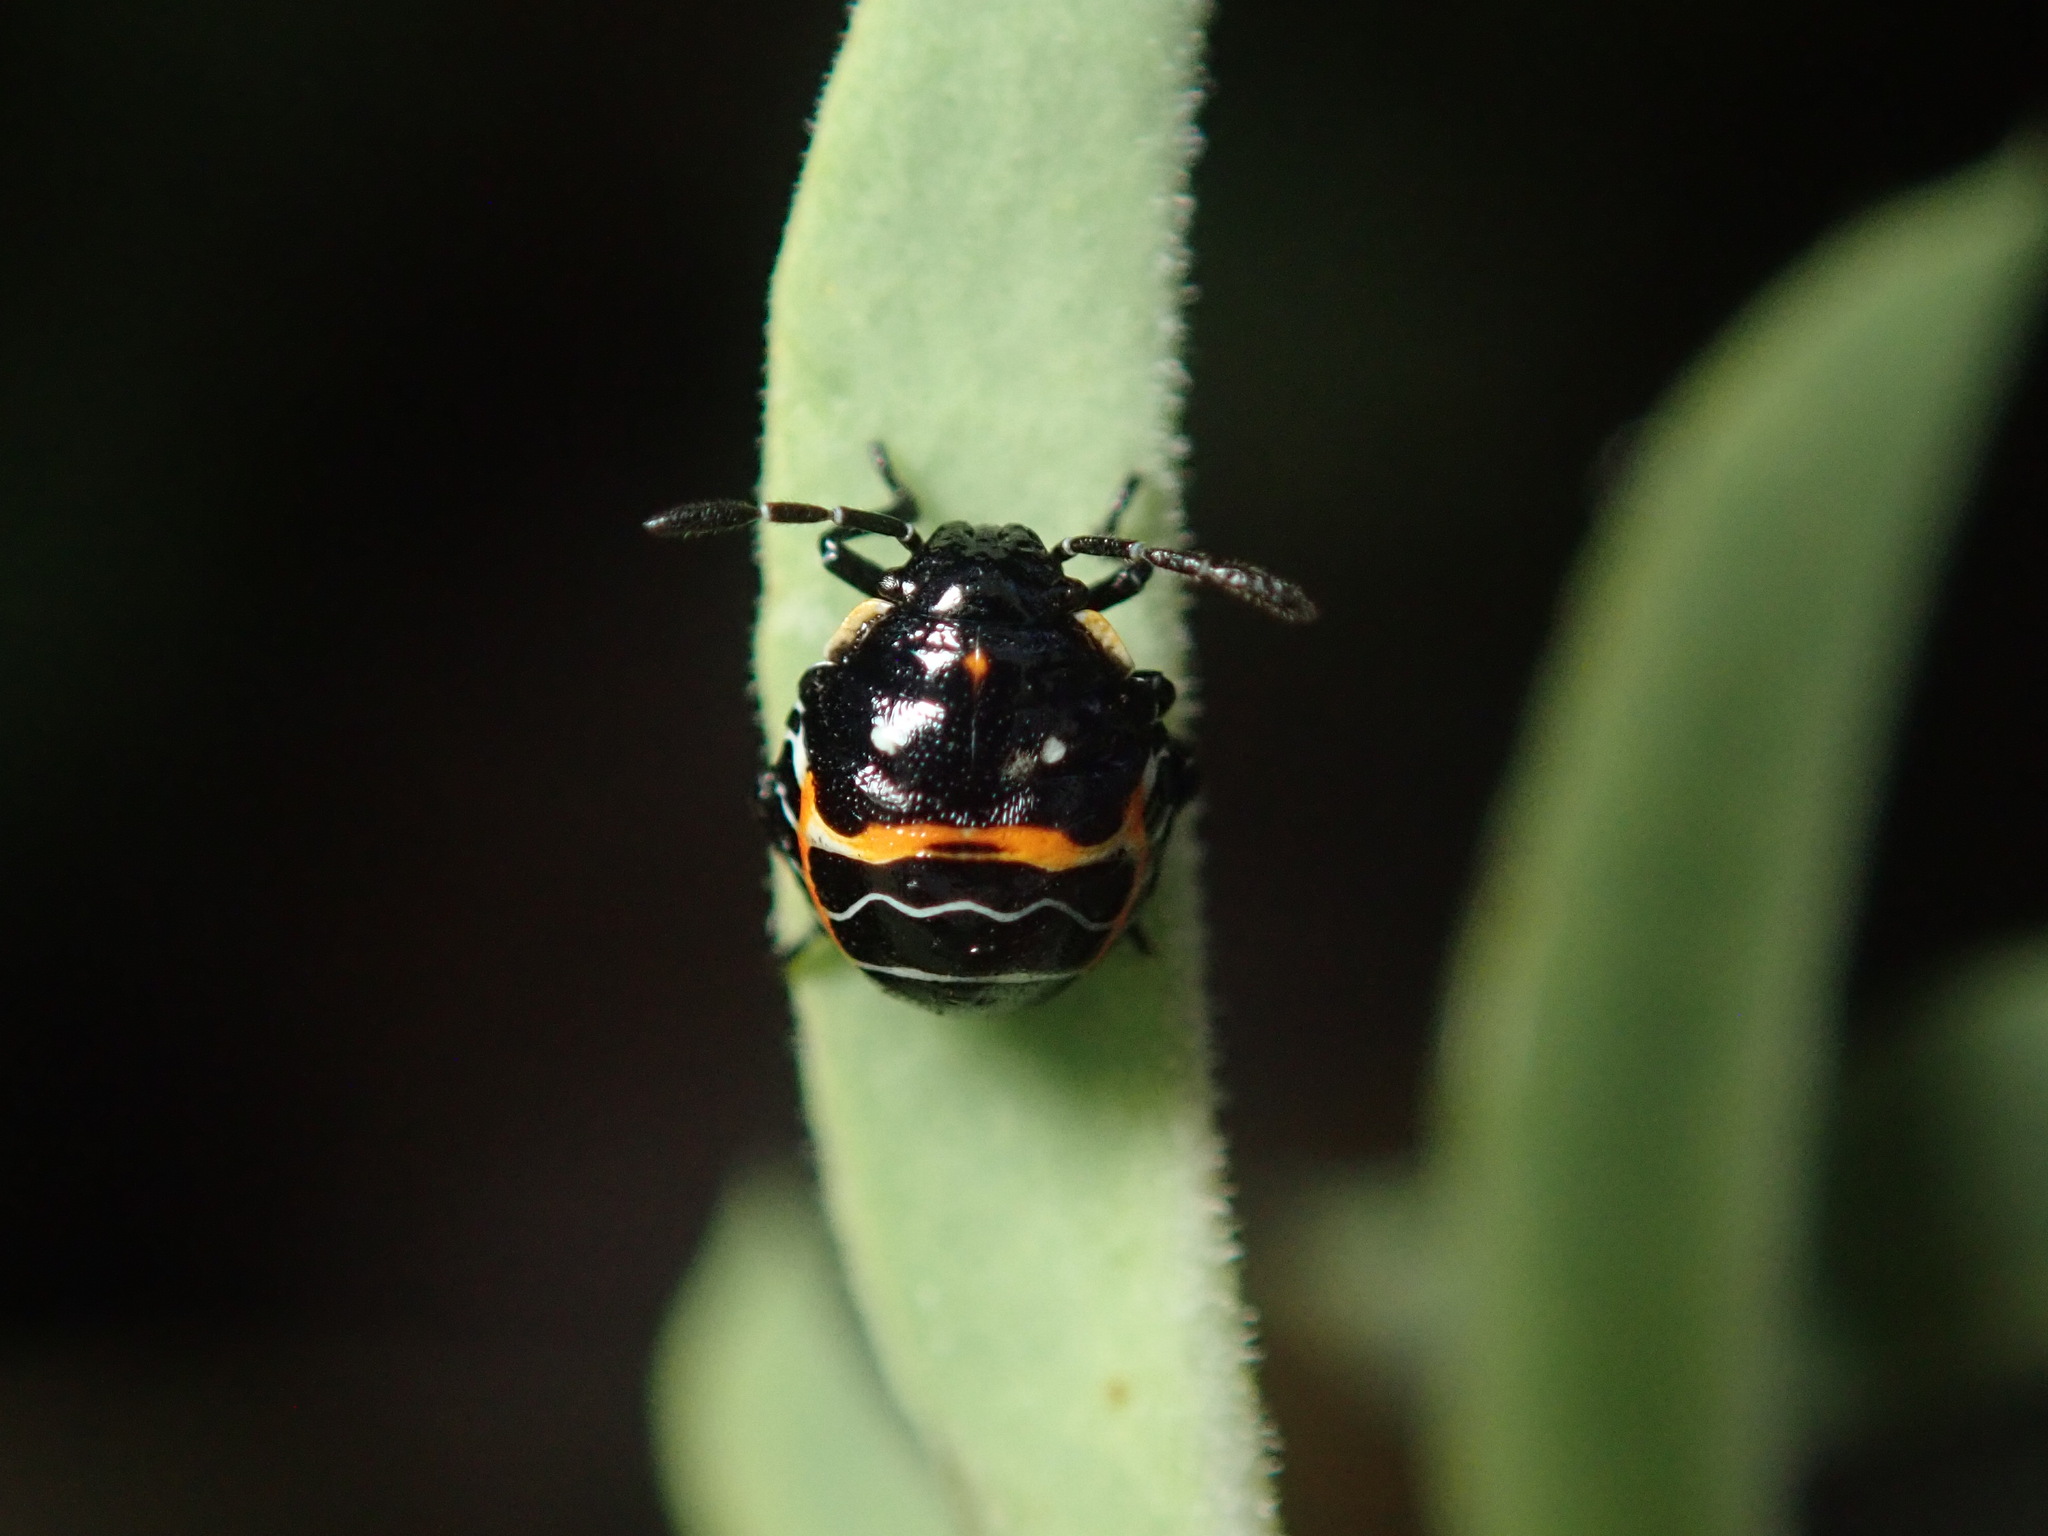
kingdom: Animalia
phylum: Arthropoda
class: Insecta
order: Hemiptera
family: Pentatomidae
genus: Murgantia
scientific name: Murgantia histrionica
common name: Harlequin bug
